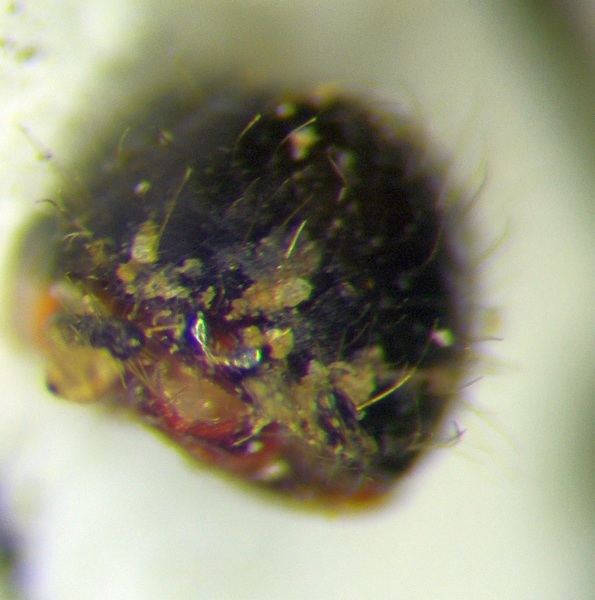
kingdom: Animalia
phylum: Arthropoda
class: Insecta
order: Hemiptera
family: Reduviidae
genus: Rhynocoris
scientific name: Rhynocoris niger
